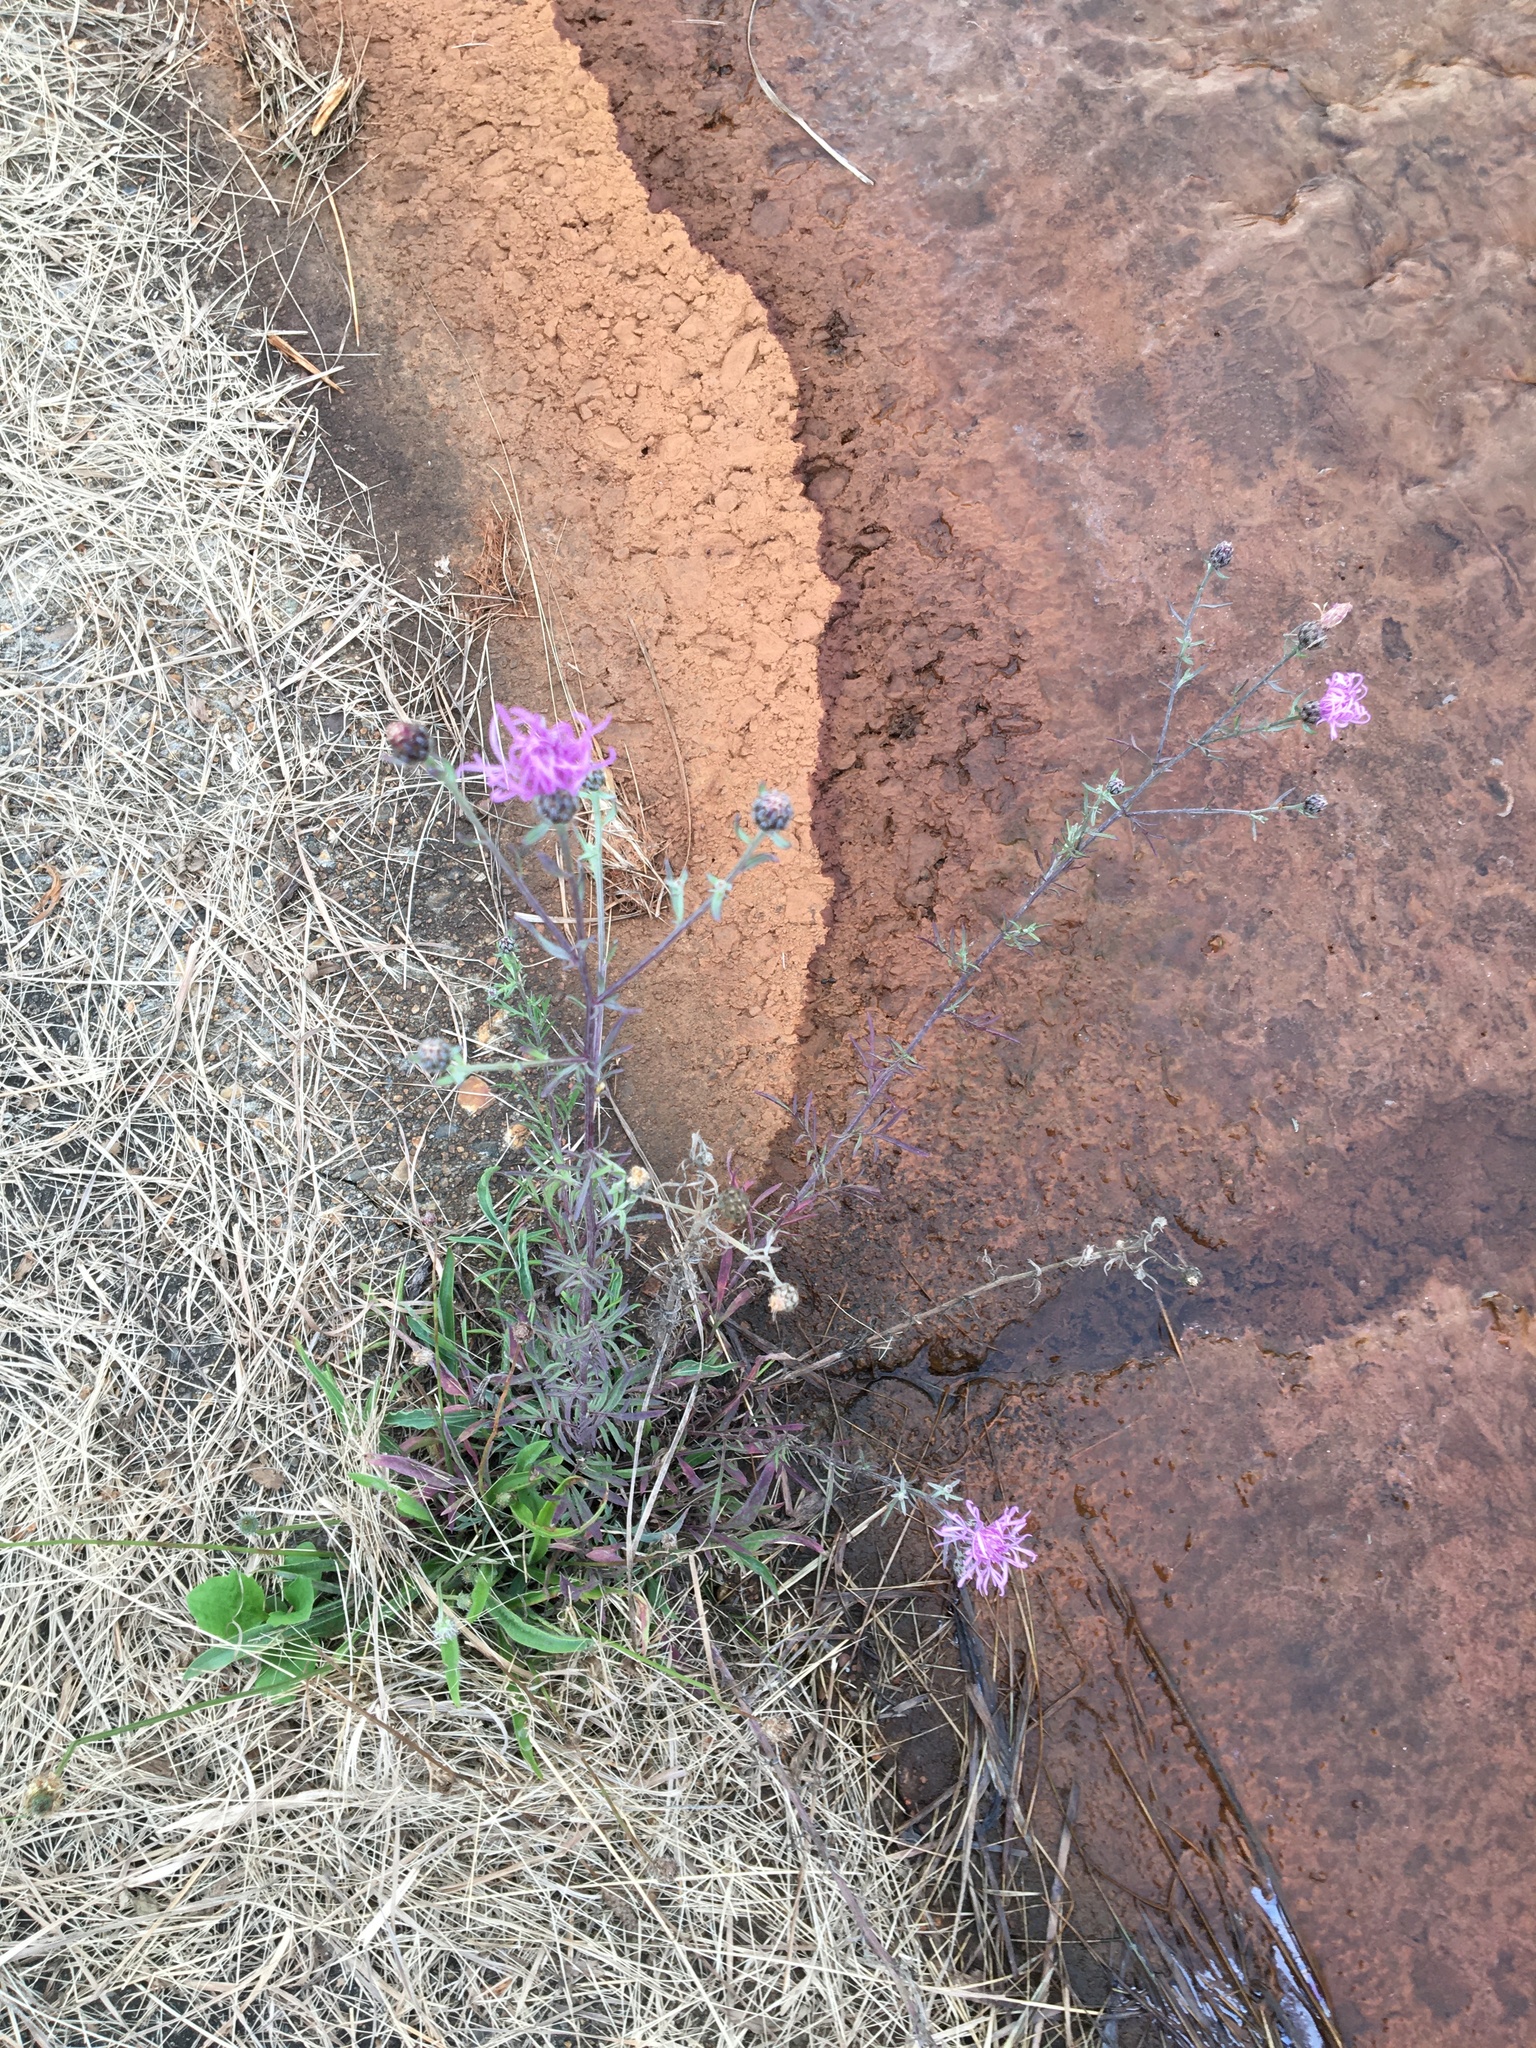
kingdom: Plantae
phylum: Tracheophyta
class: Magnoliopsida
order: Asterales
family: Asteraceae
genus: Centaurea
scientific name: Centaurea stoebe
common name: Spotted knapweed
